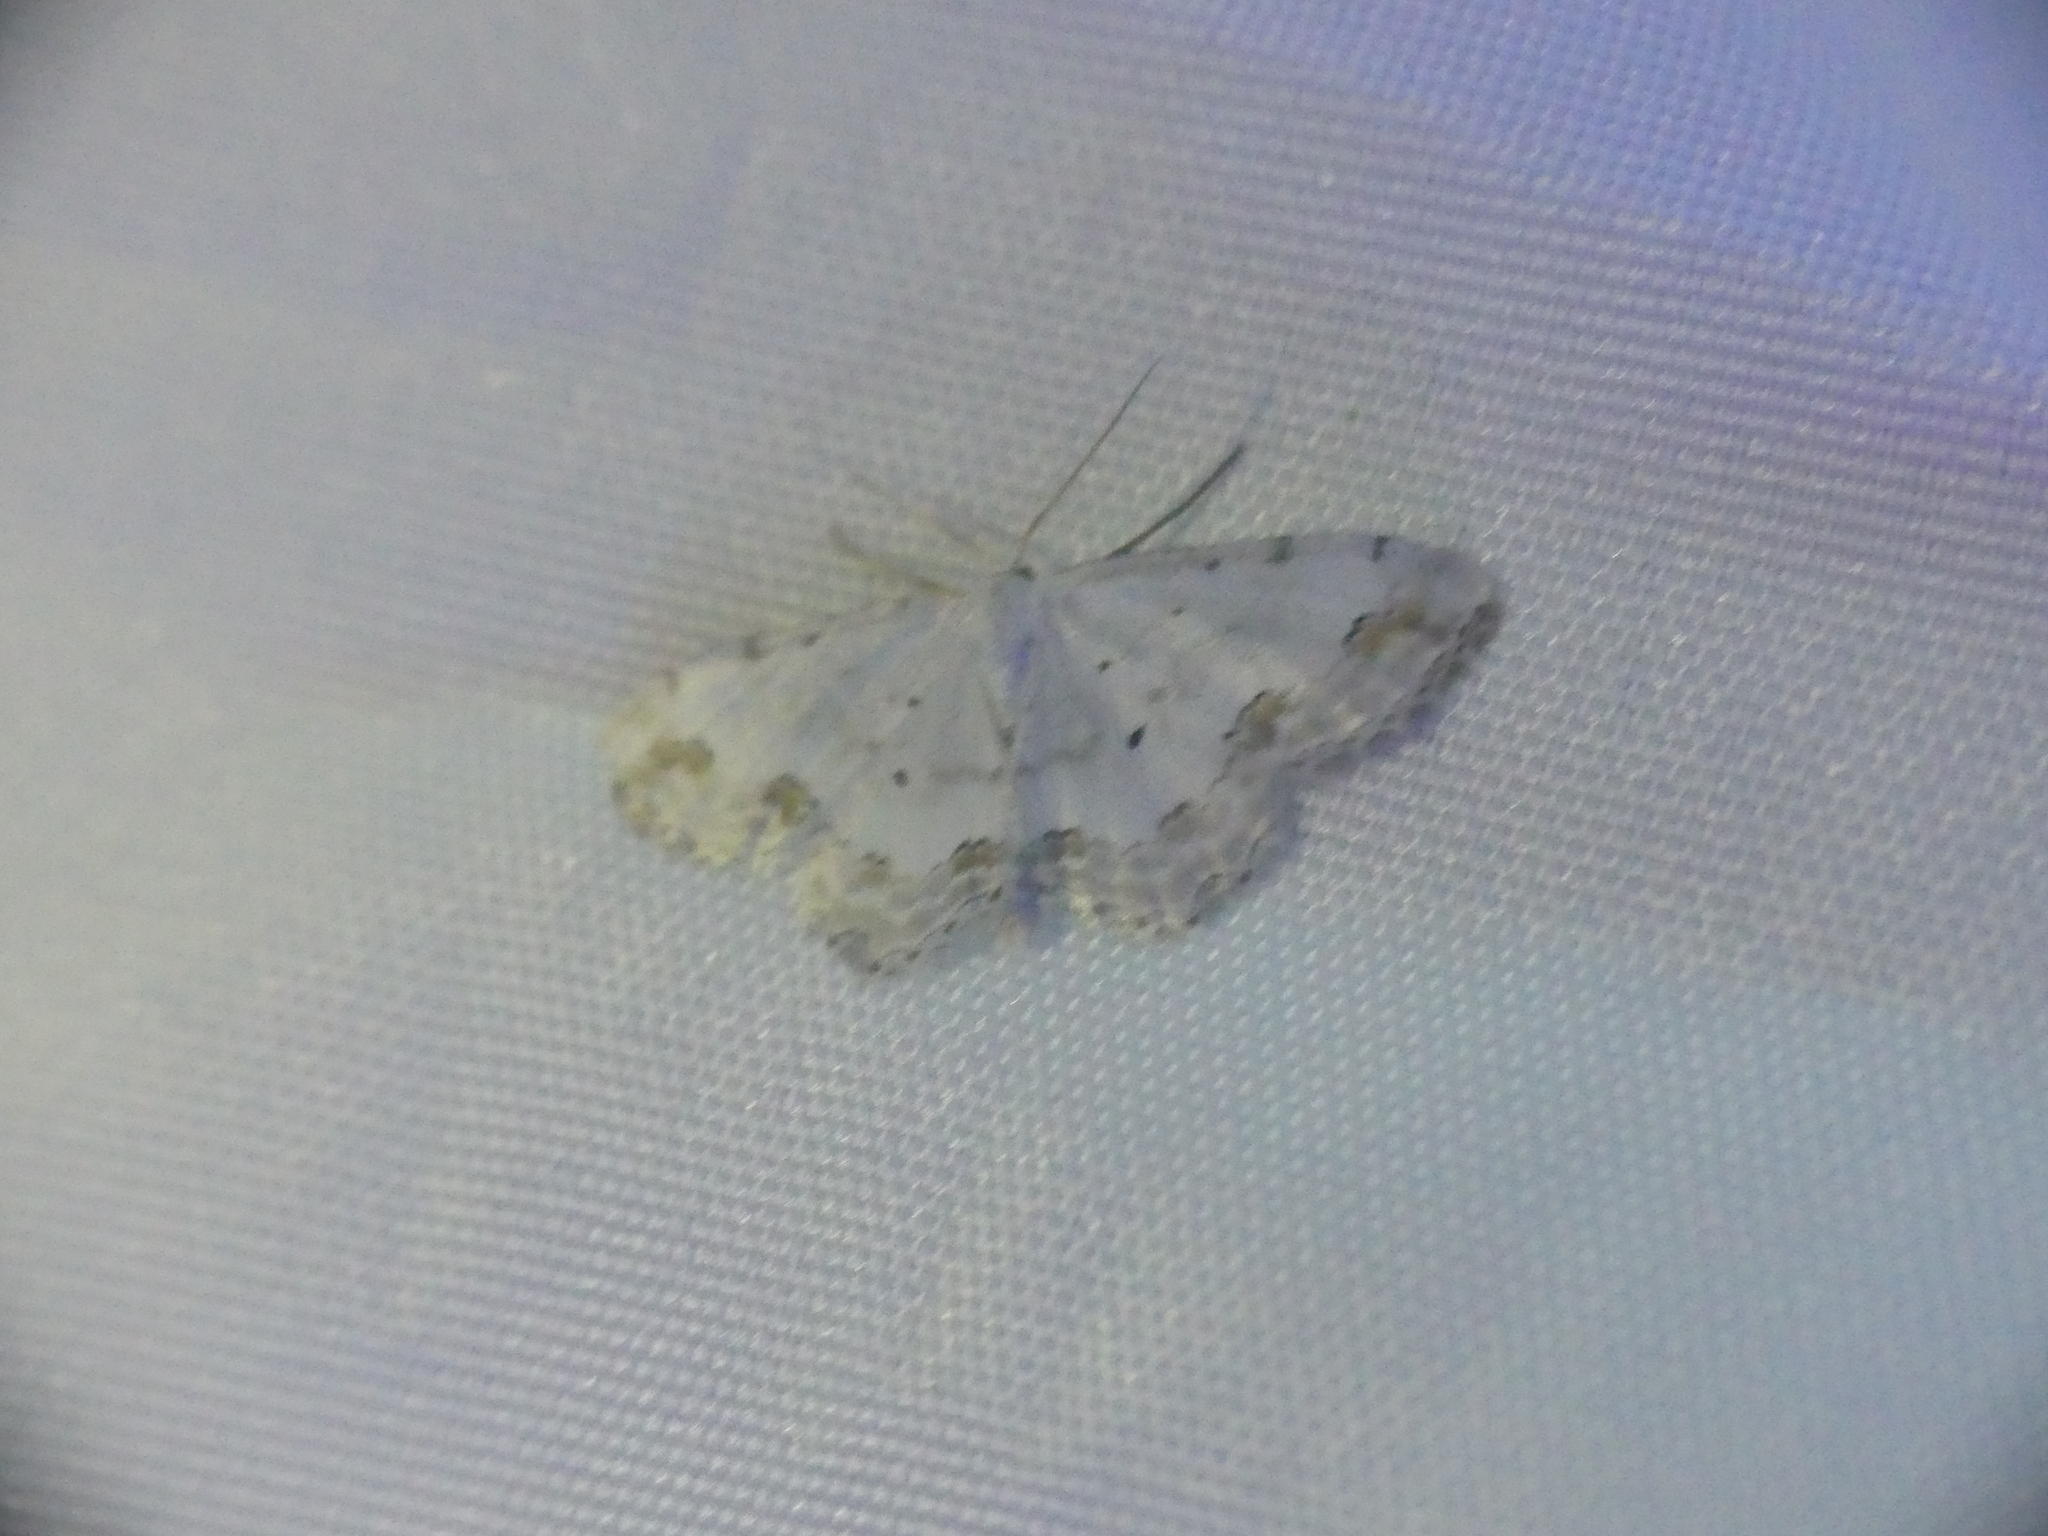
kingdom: Animalia
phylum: Arthropoda
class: Insecta
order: Lepidoptera
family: Geometridae
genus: Scopula
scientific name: Scopula ornata
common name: Lace border
